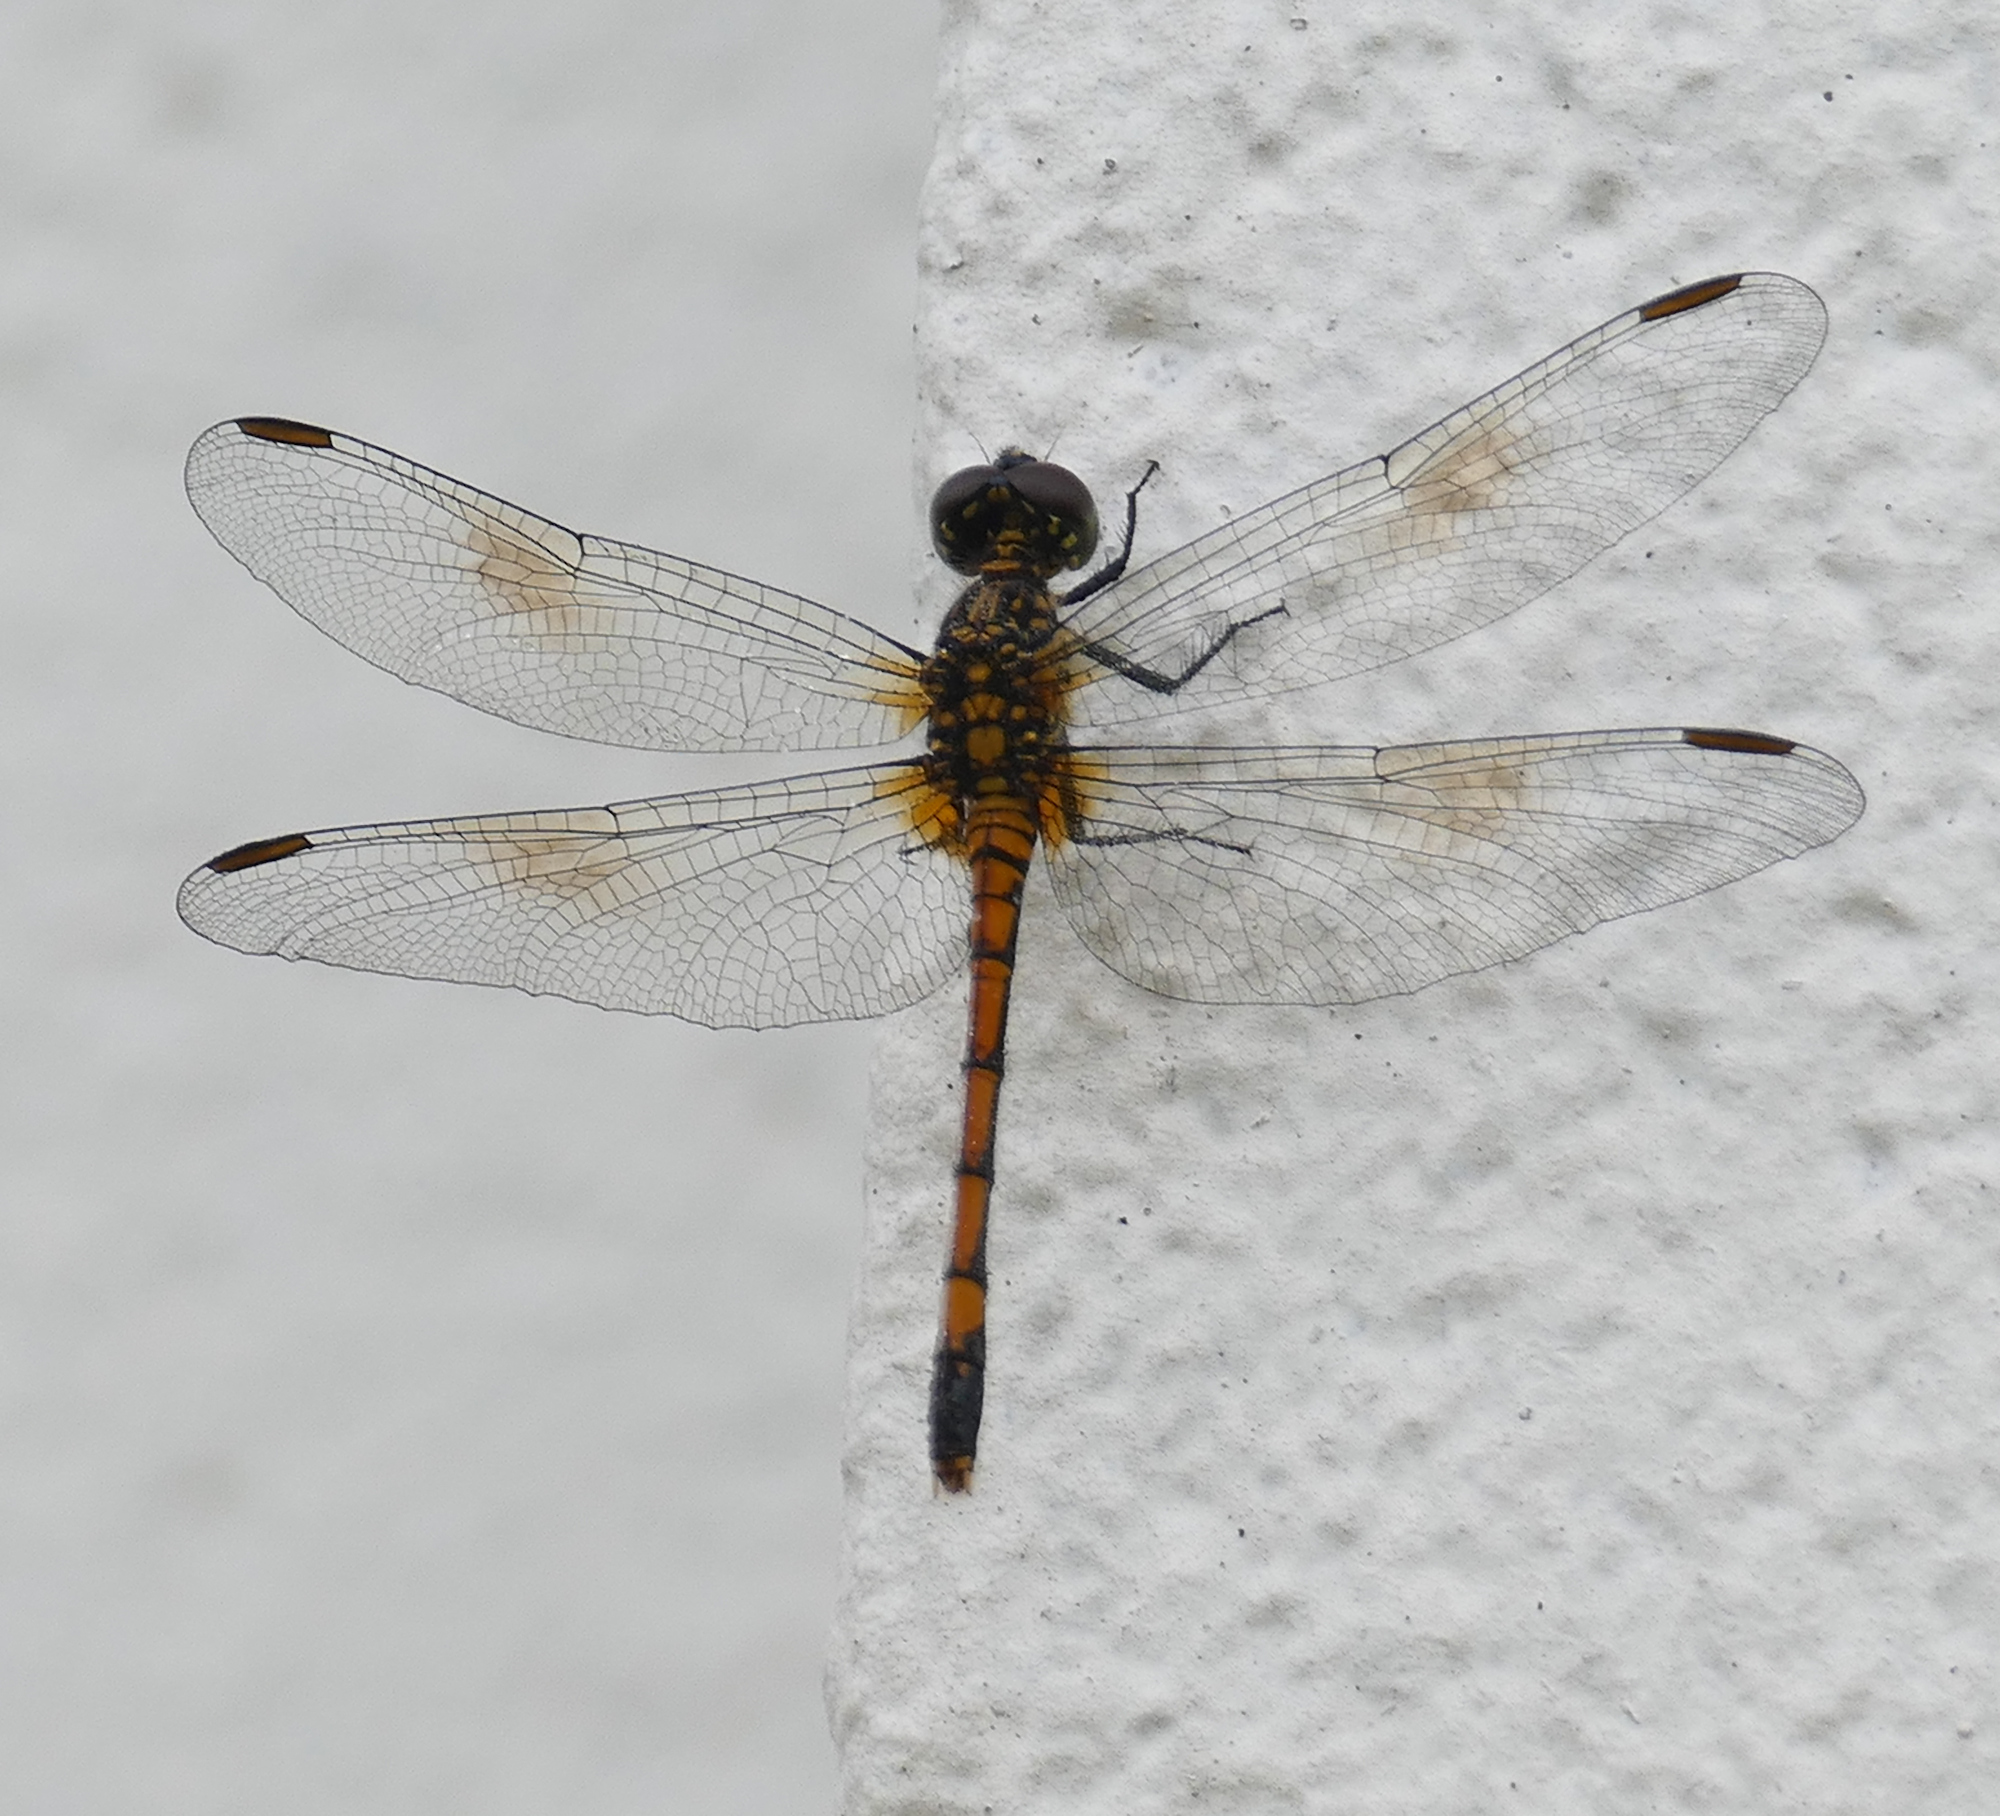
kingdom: Animalia
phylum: Arthropoda
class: Insecta
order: Odonata
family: Libellulidae
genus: Erythrodiplax
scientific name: Erythrodiplax berenice
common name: Seaside dragonlet
